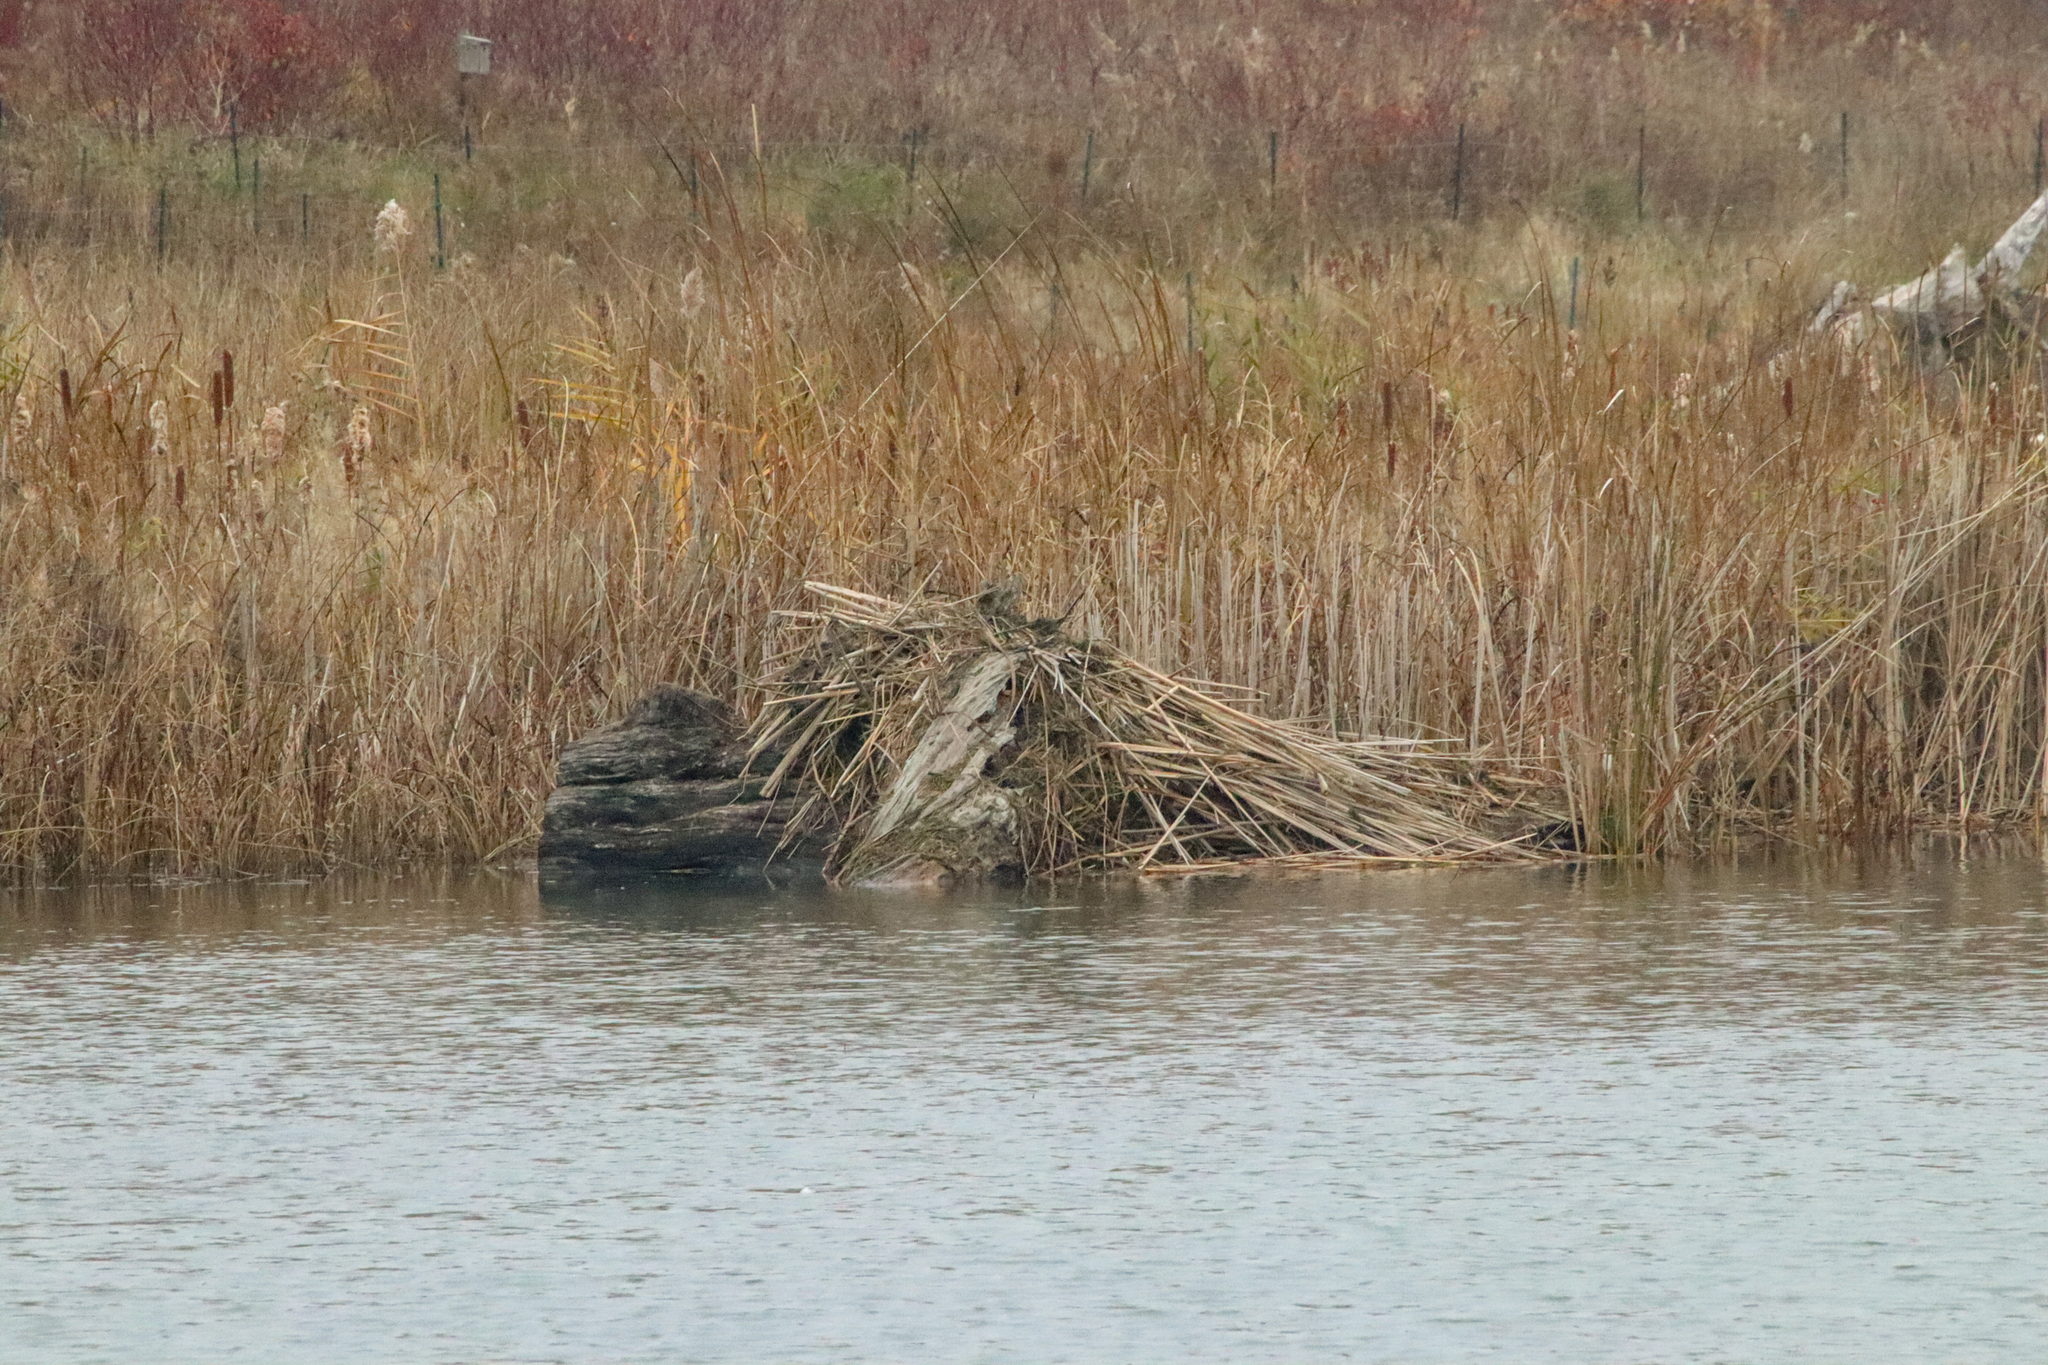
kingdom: Animalia
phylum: Chordata
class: Mammalia
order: Rodentia
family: Castoridae
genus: Castor
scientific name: Castor canadensis
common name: American beaver
